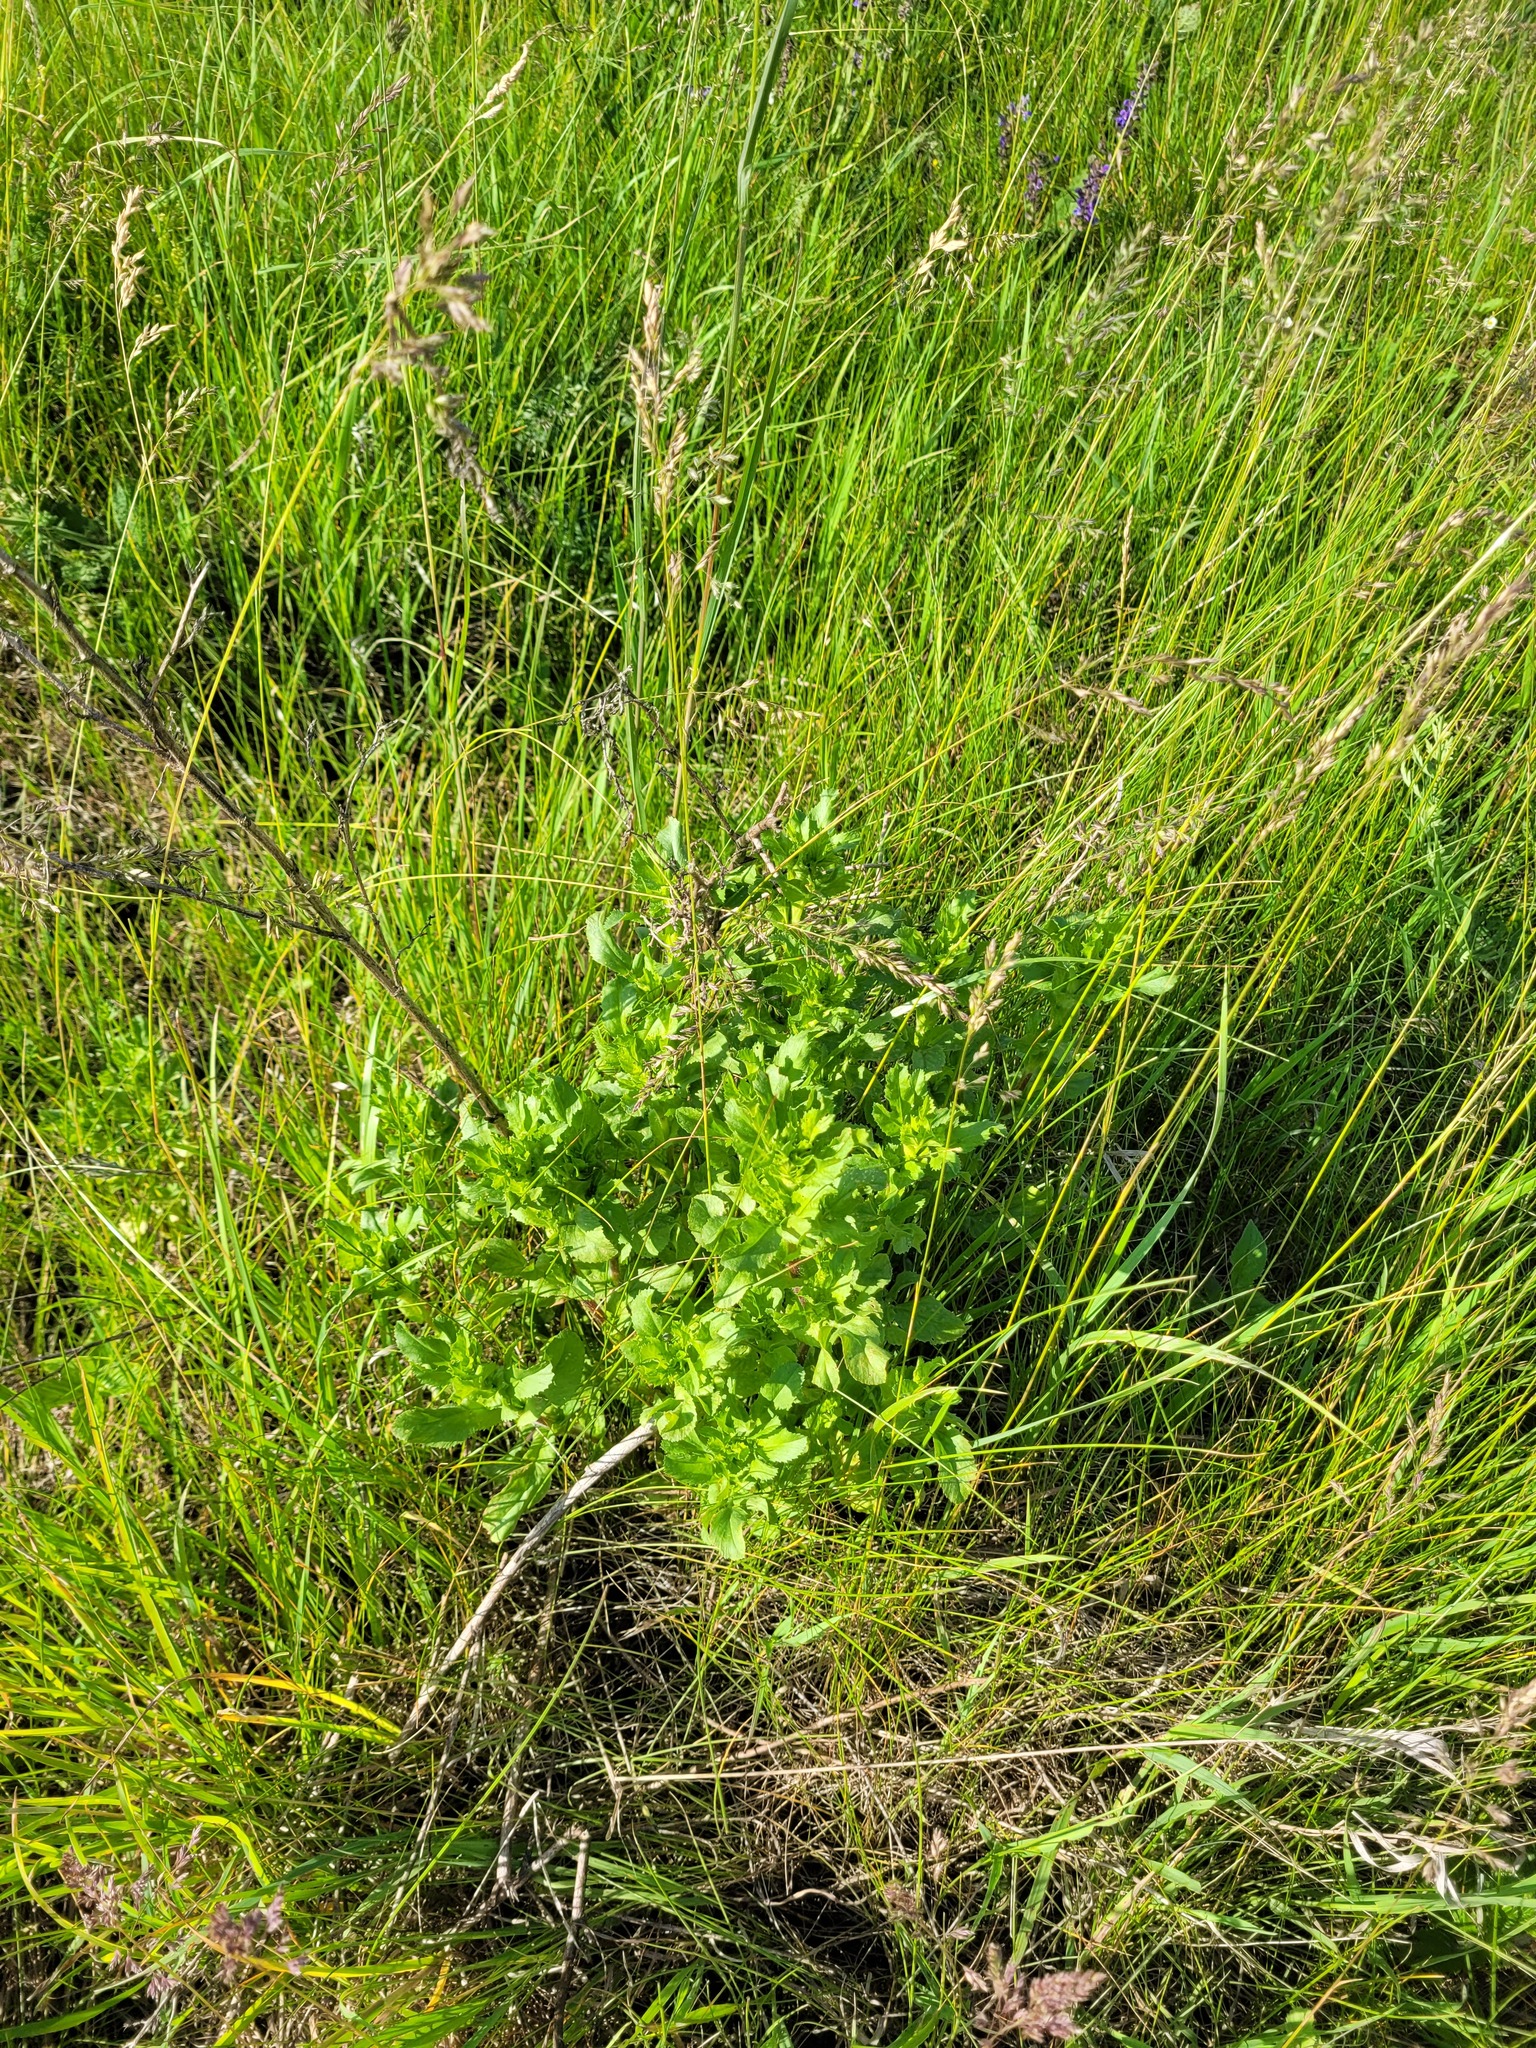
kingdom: Plantae
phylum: Tracheophyta
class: Magnoliopsida
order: Fabales
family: Fabaceae
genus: Ononis
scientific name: Ononis arvensis
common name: Field restharrow
